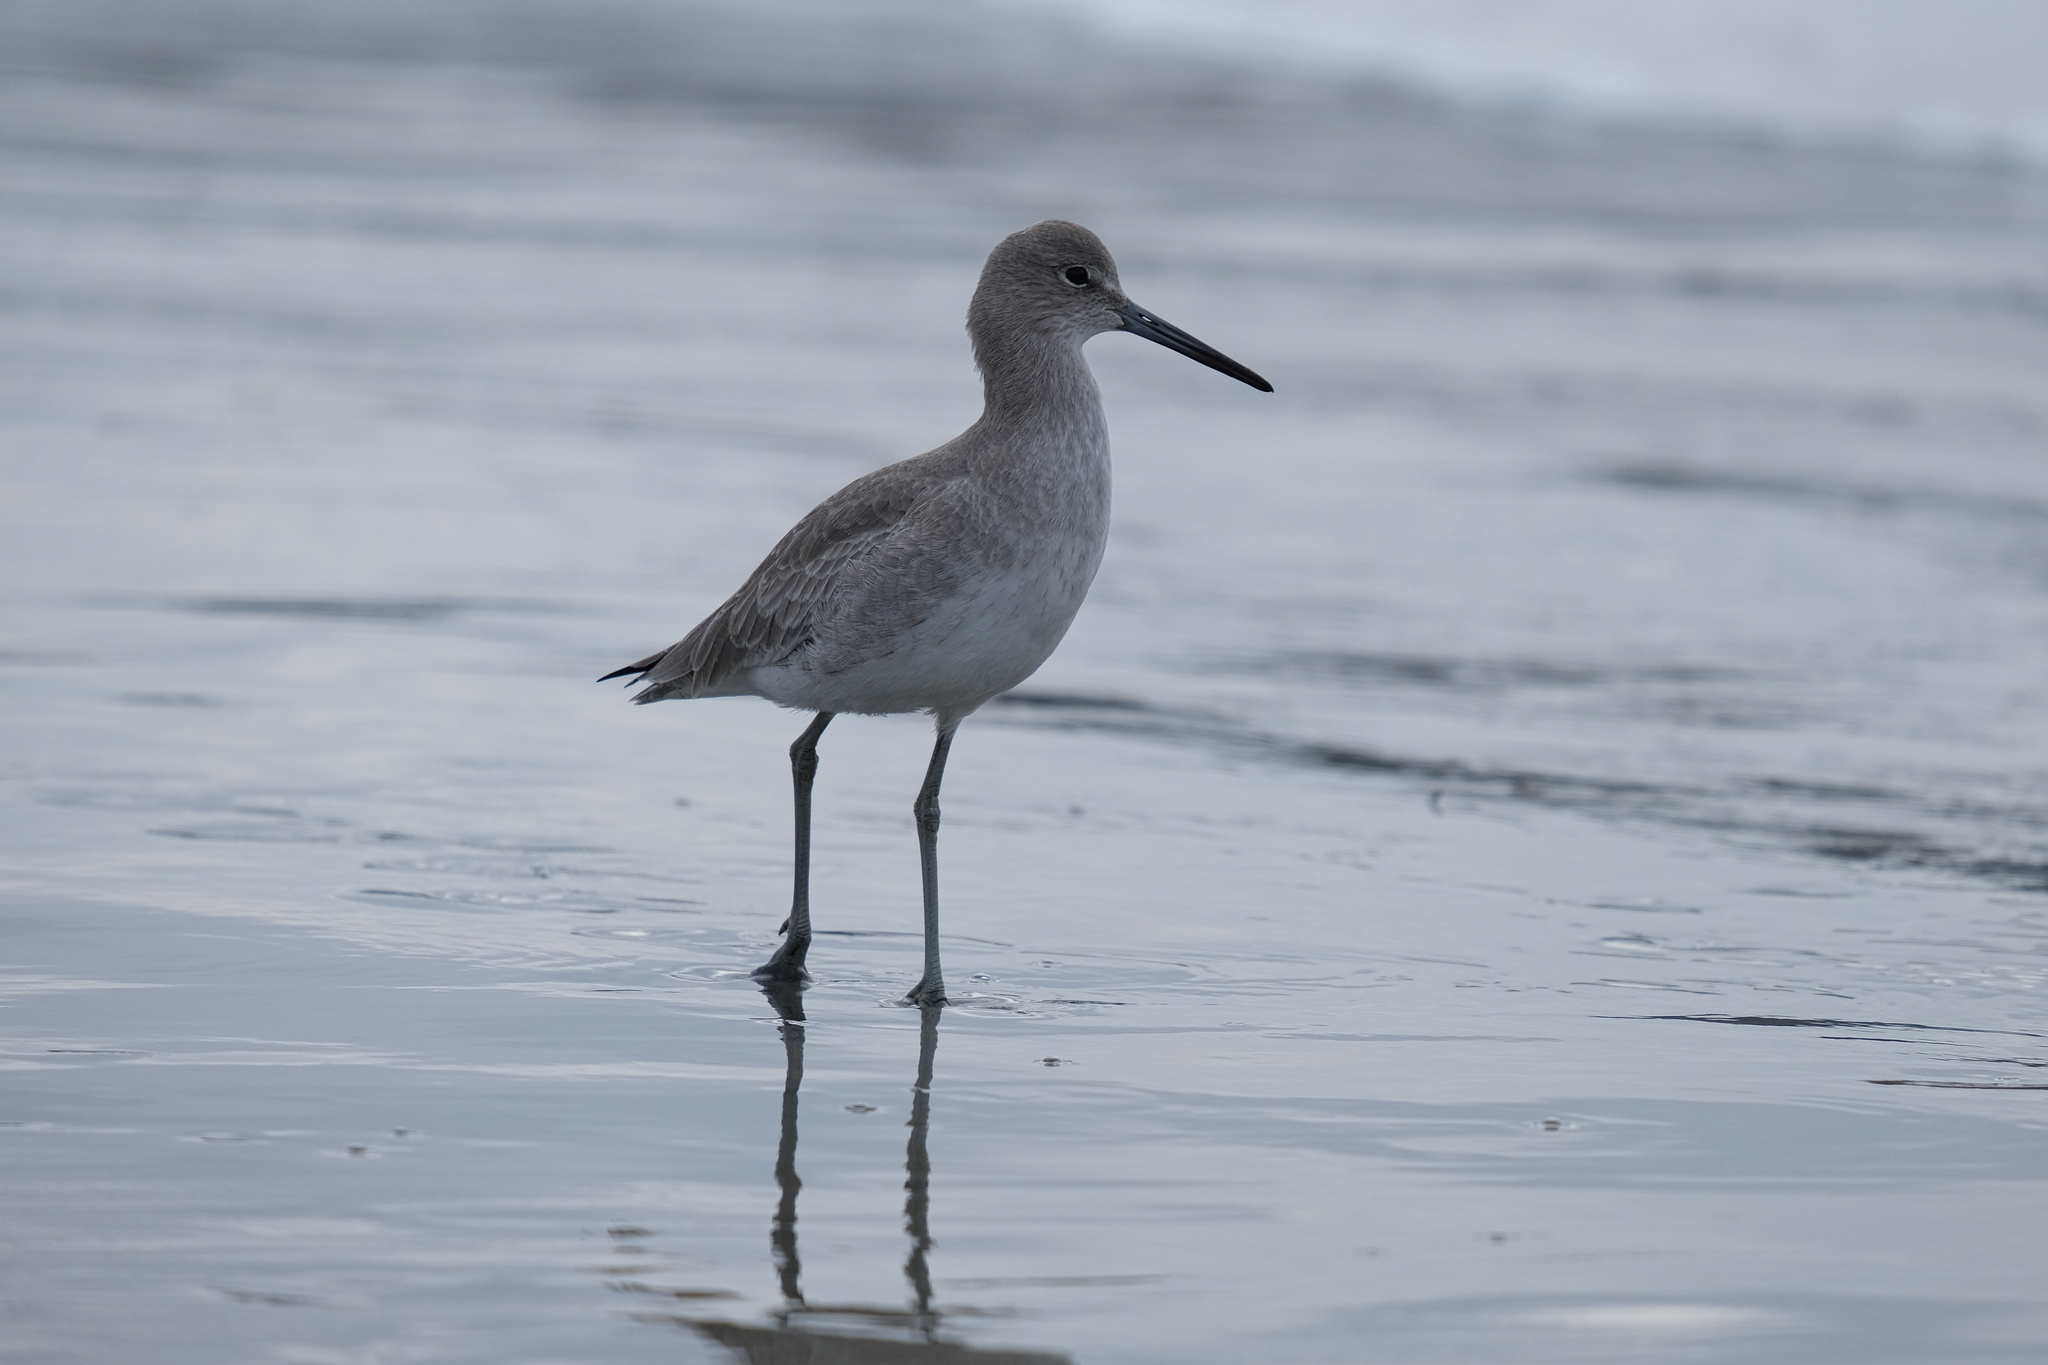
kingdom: Animalia
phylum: Chordata
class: Aves
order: Charadriiformes
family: Scolopacidae
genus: Tringa
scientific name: Tringa semipalmata
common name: Willet
